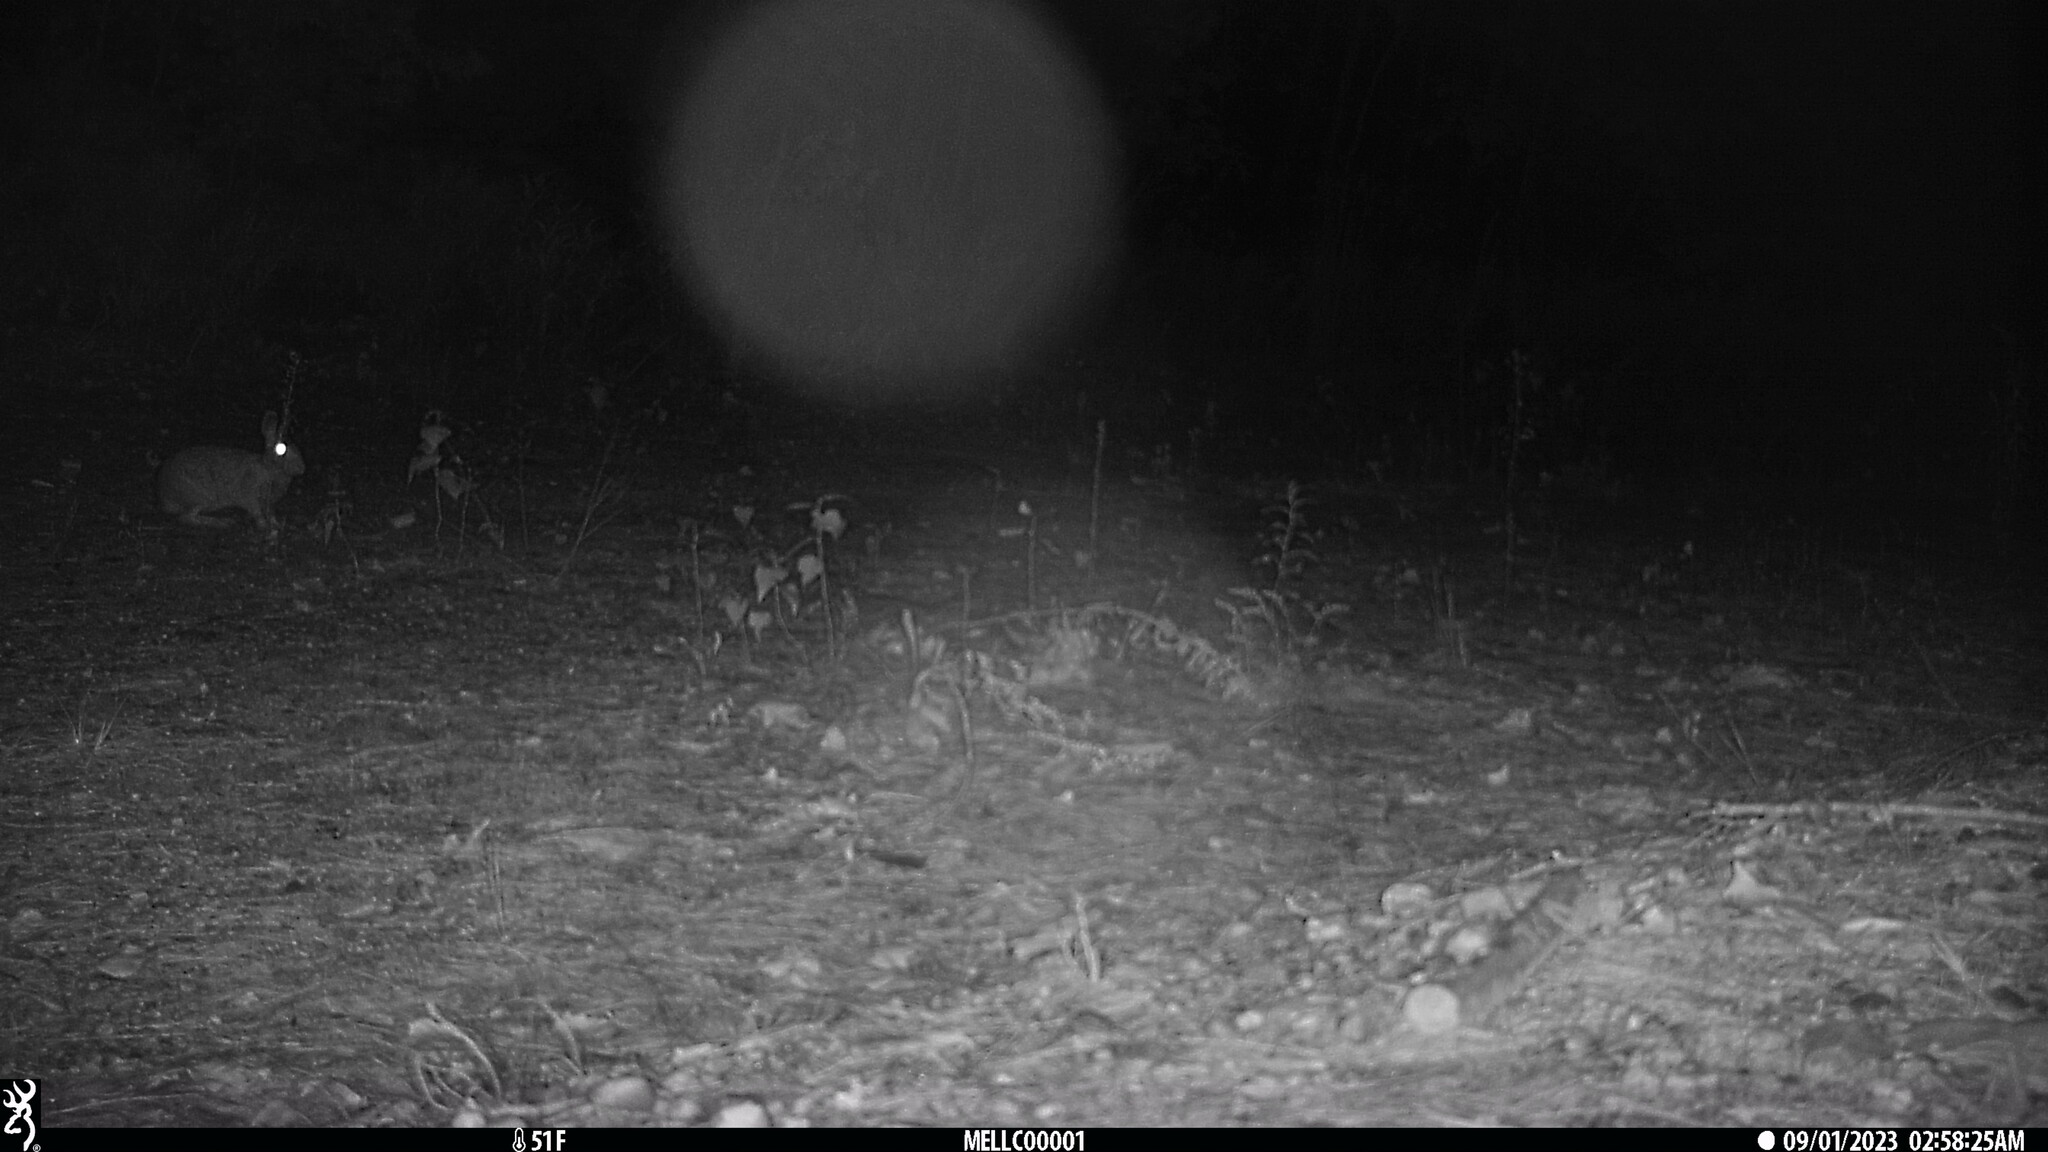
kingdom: Animalia
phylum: Chordata
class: Mammalia
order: Lagomorpha
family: Leporidae
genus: Sylvilagus
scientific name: Sylvilagus floridanus
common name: Eastern cottontail
